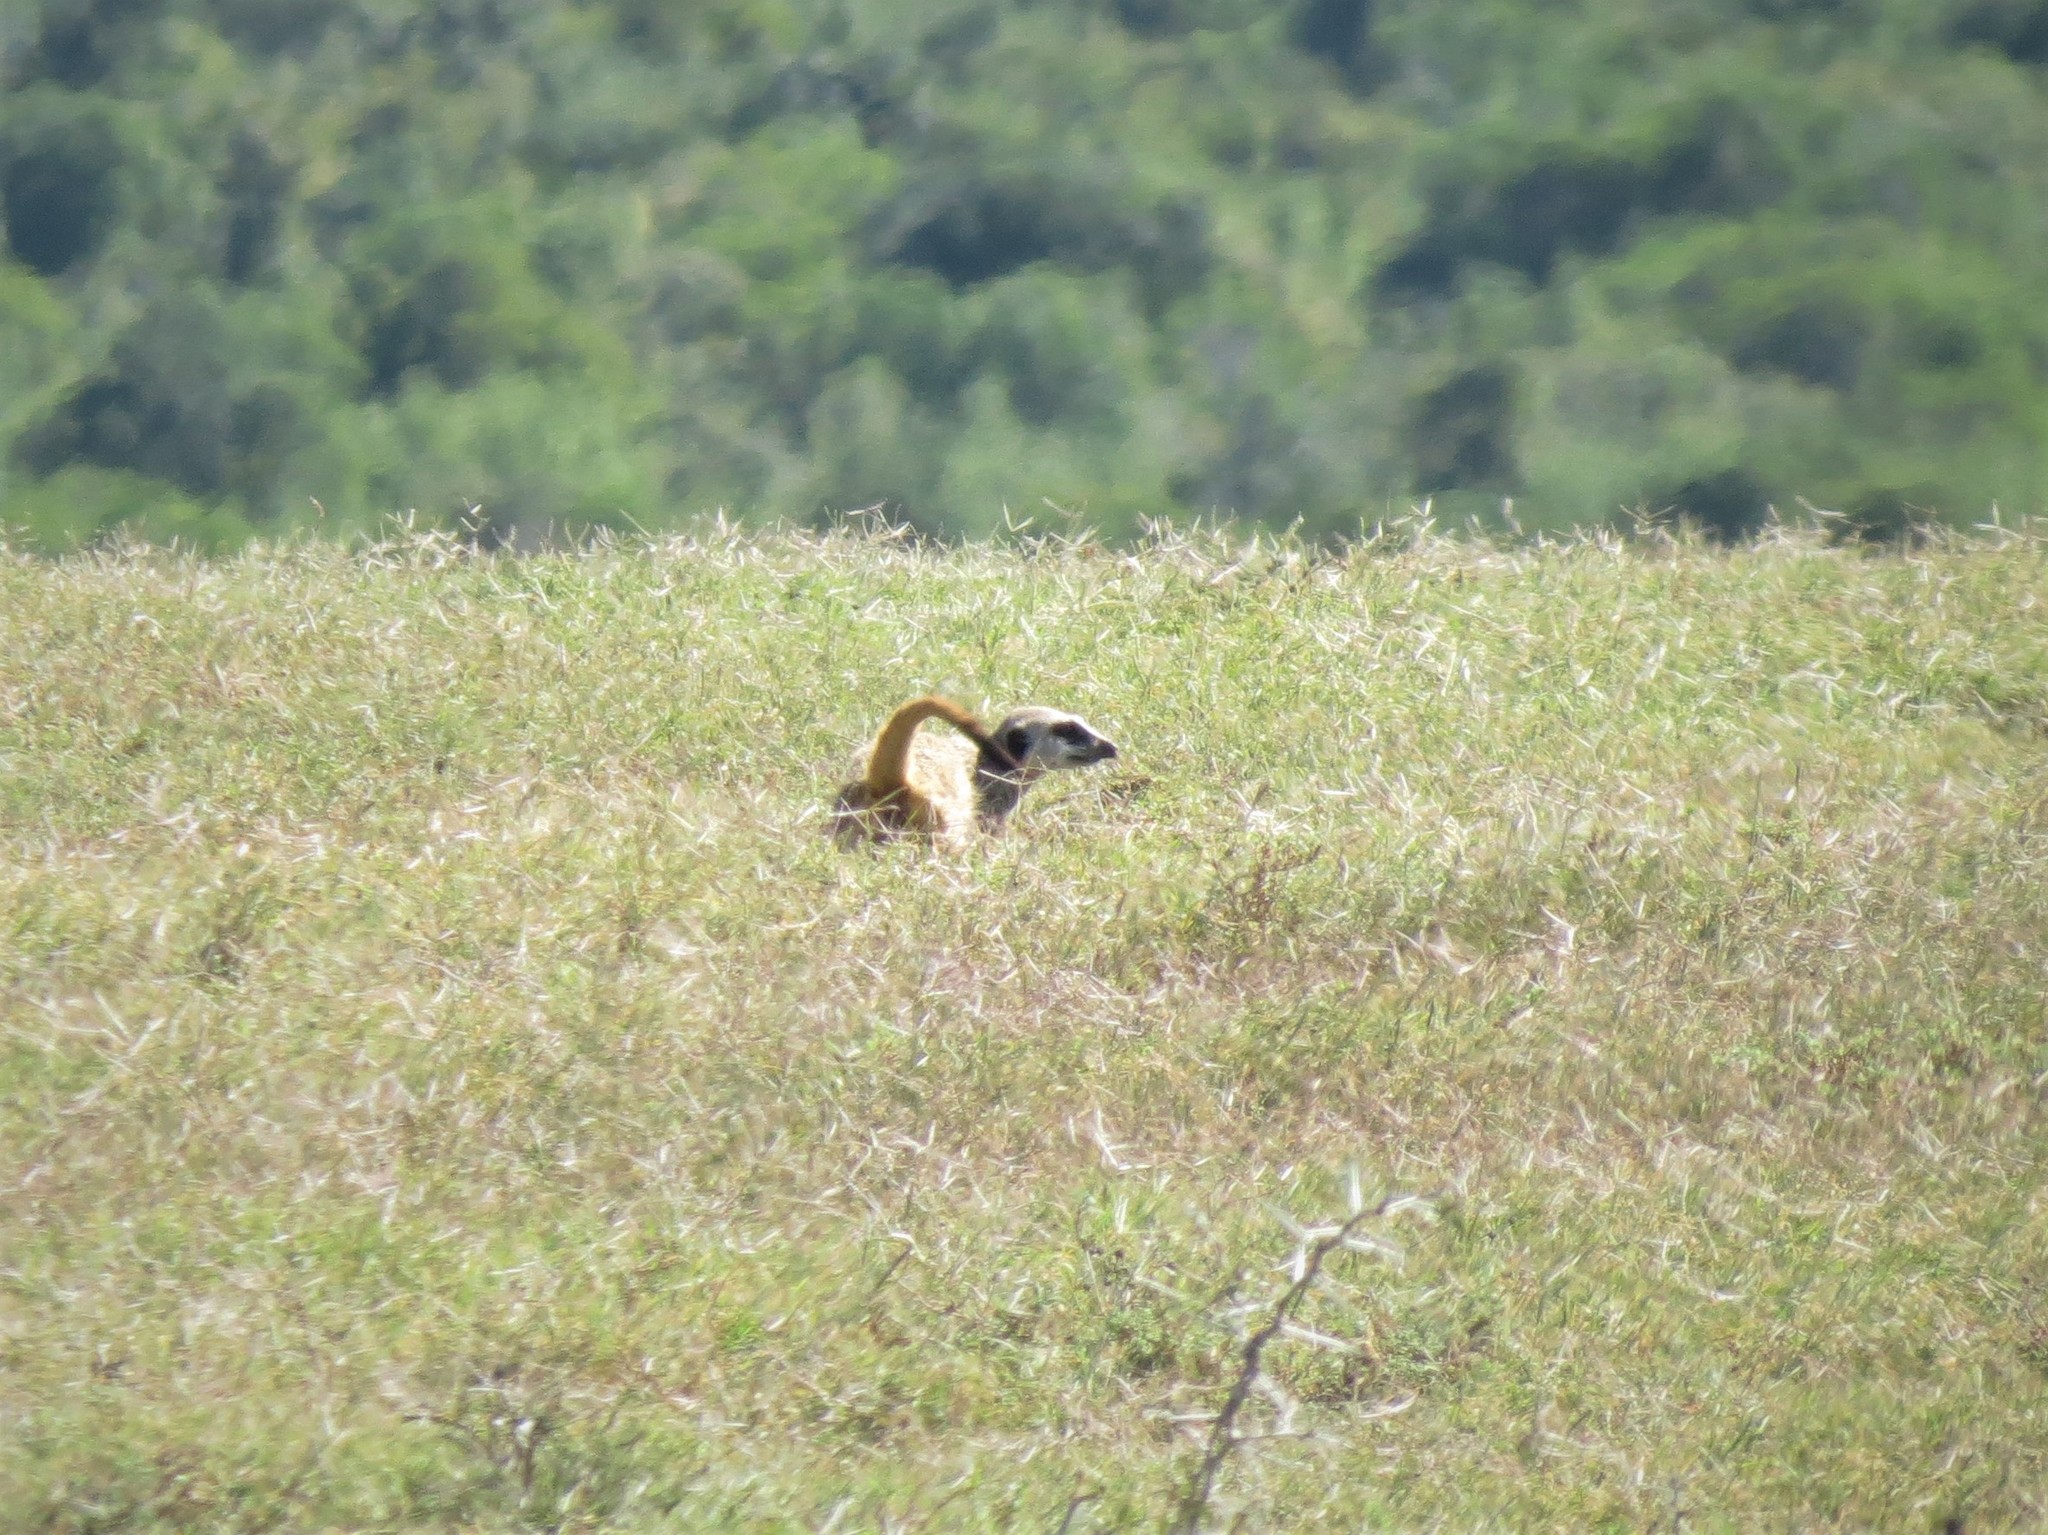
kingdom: Animalia
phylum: Chordata
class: Mammalia
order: Carnivora
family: Herpestidae
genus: Suricata
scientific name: Suricata suricatta
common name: Meerkat
